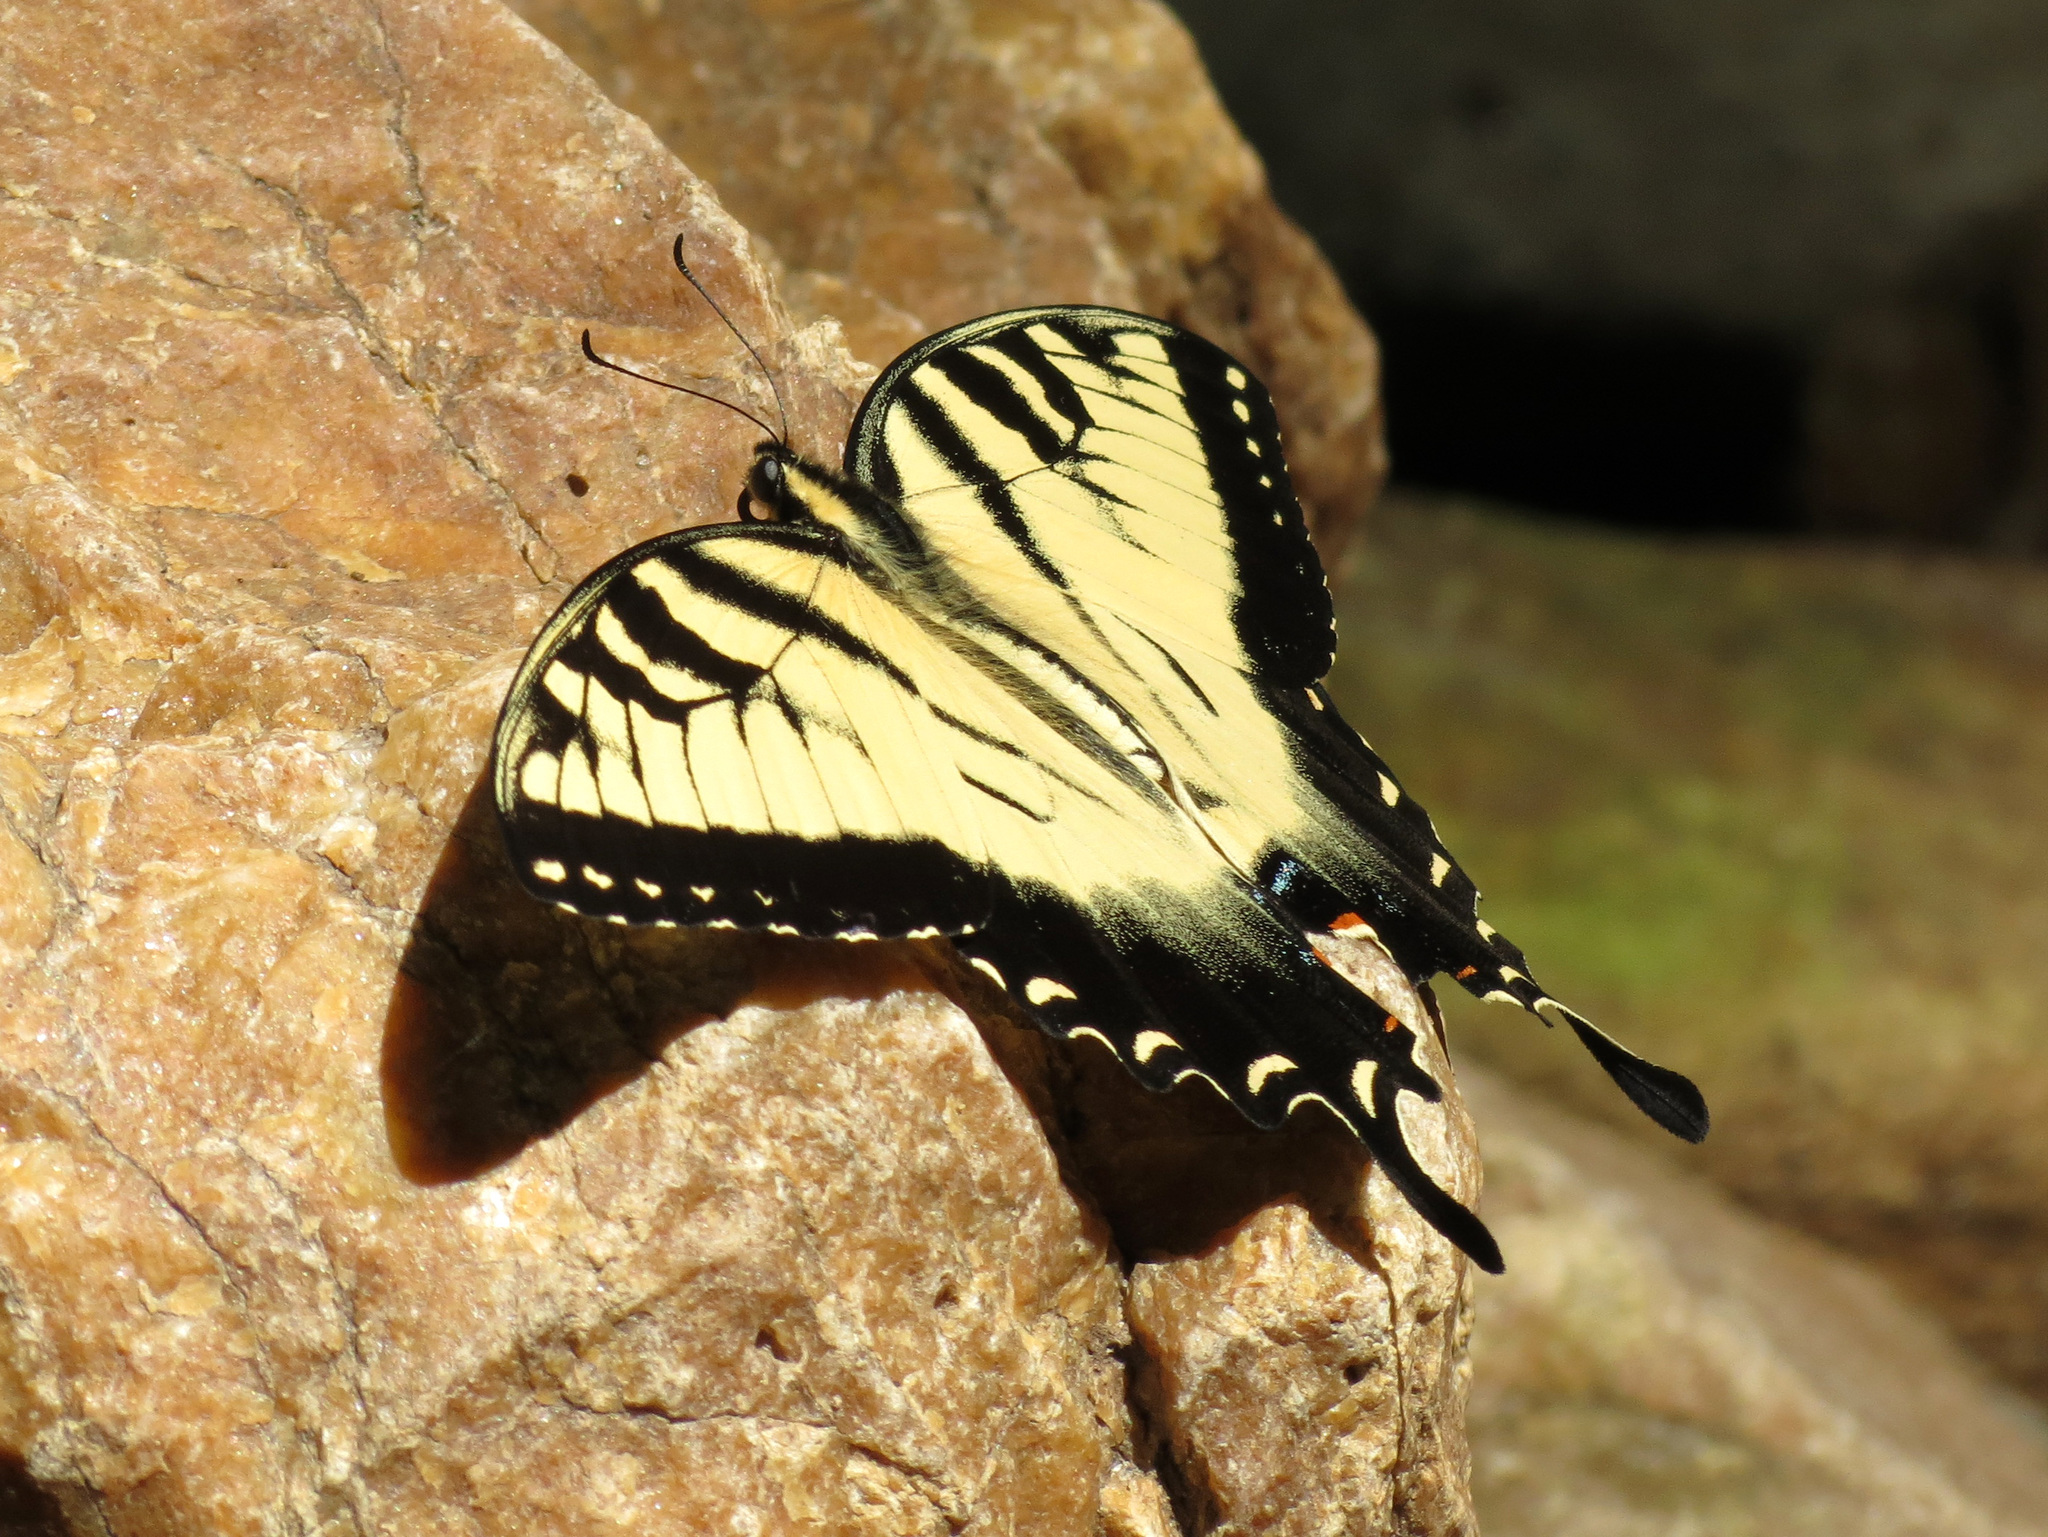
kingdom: Animalia
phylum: Arthropoda
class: Insecta
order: Lepidoptera
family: Papilionidae
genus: Papilio
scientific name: Papilio glaucus
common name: Tiger swallowtail
